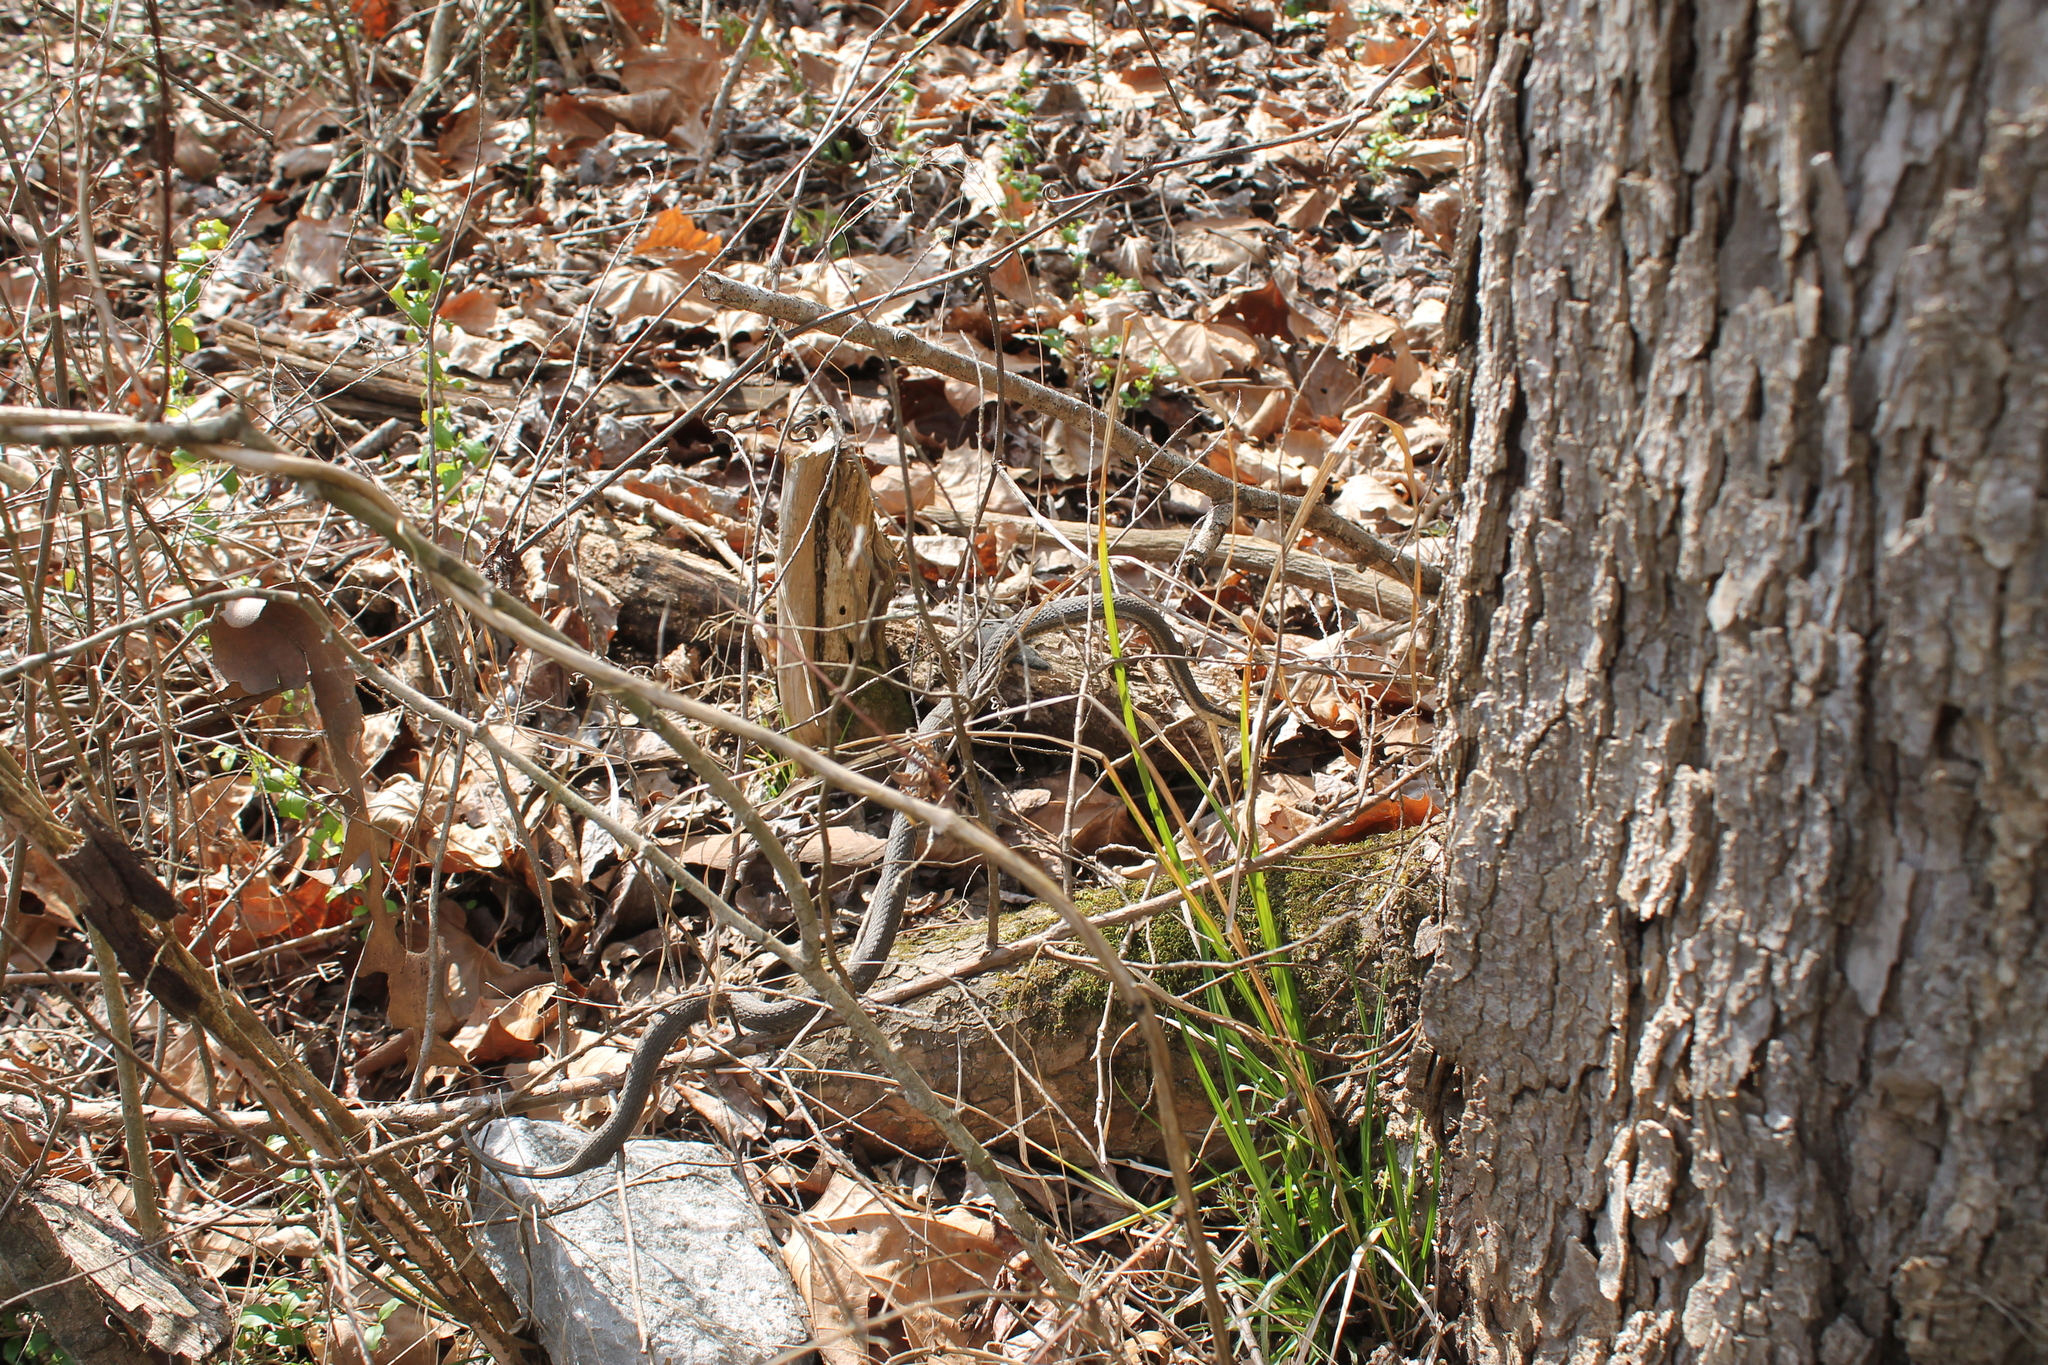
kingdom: Animalia
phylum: Chordata
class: Squamata
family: Colubridae
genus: Regina
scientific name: Regina septemvittata
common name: Queen snake
